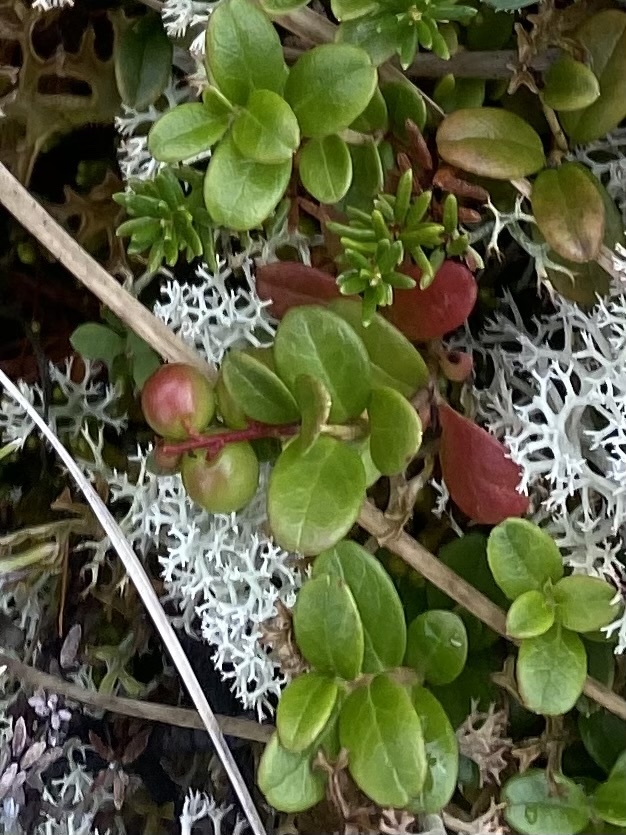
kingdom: Plantae
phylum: Tracheophyta
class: Magnoliopsida
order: Ericales
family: Ericaceae
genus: Vaccinium
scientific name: Vaccinium vitis-idaea
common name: Cowberry
